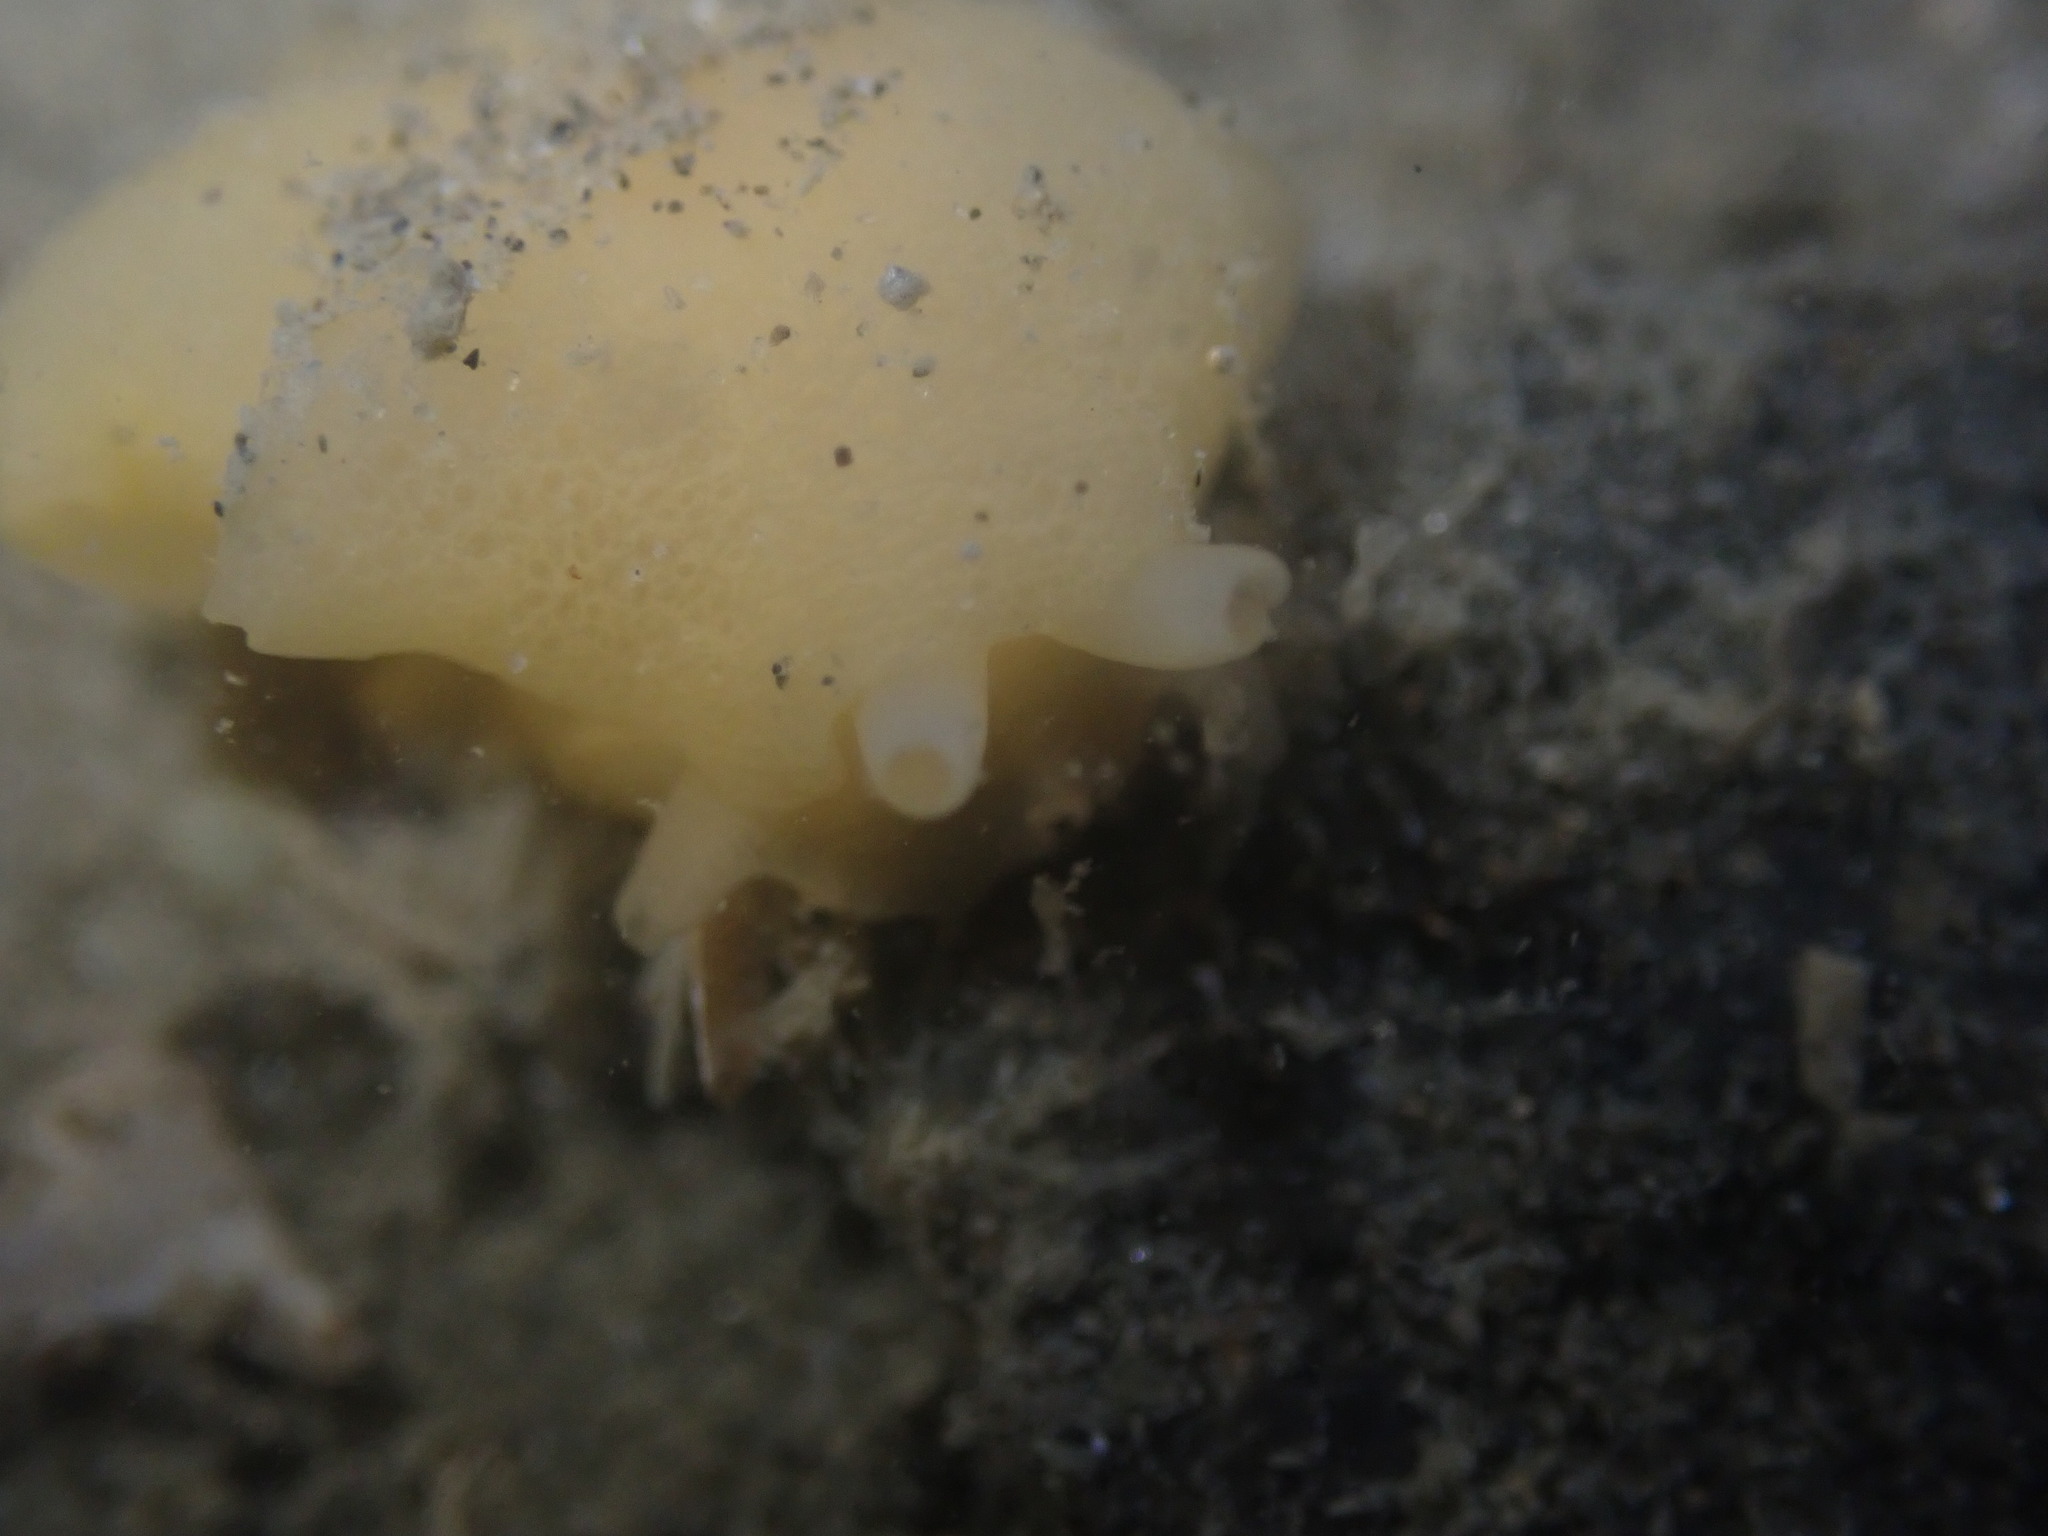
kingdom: Animalia
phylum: Mollusca
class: Gastropoda
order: Pleurobranchida
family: Pleurobranchidae
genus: Berthella
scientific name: Berthella medietas
